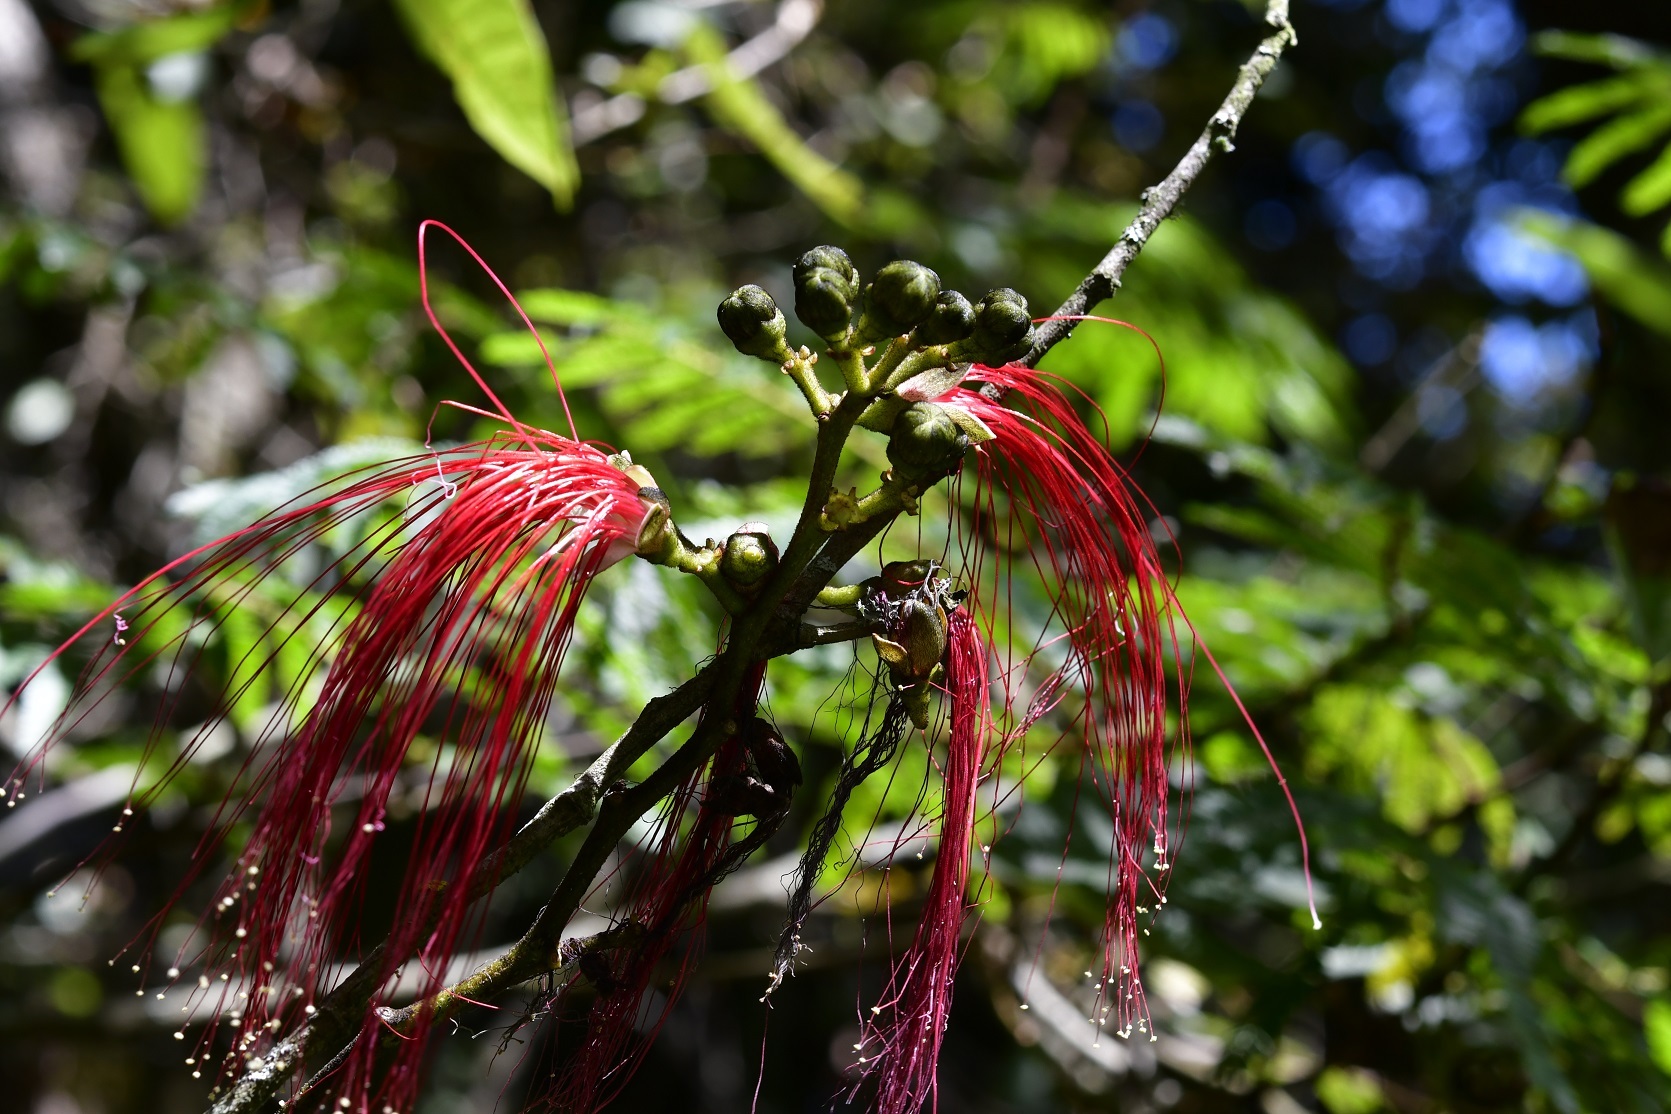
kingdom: Plantae
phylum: Tracheophyta
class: Magnoliopsida
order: Fabales
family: Fabaceae
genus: Calliandra
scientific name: Calliandra houstoniana
